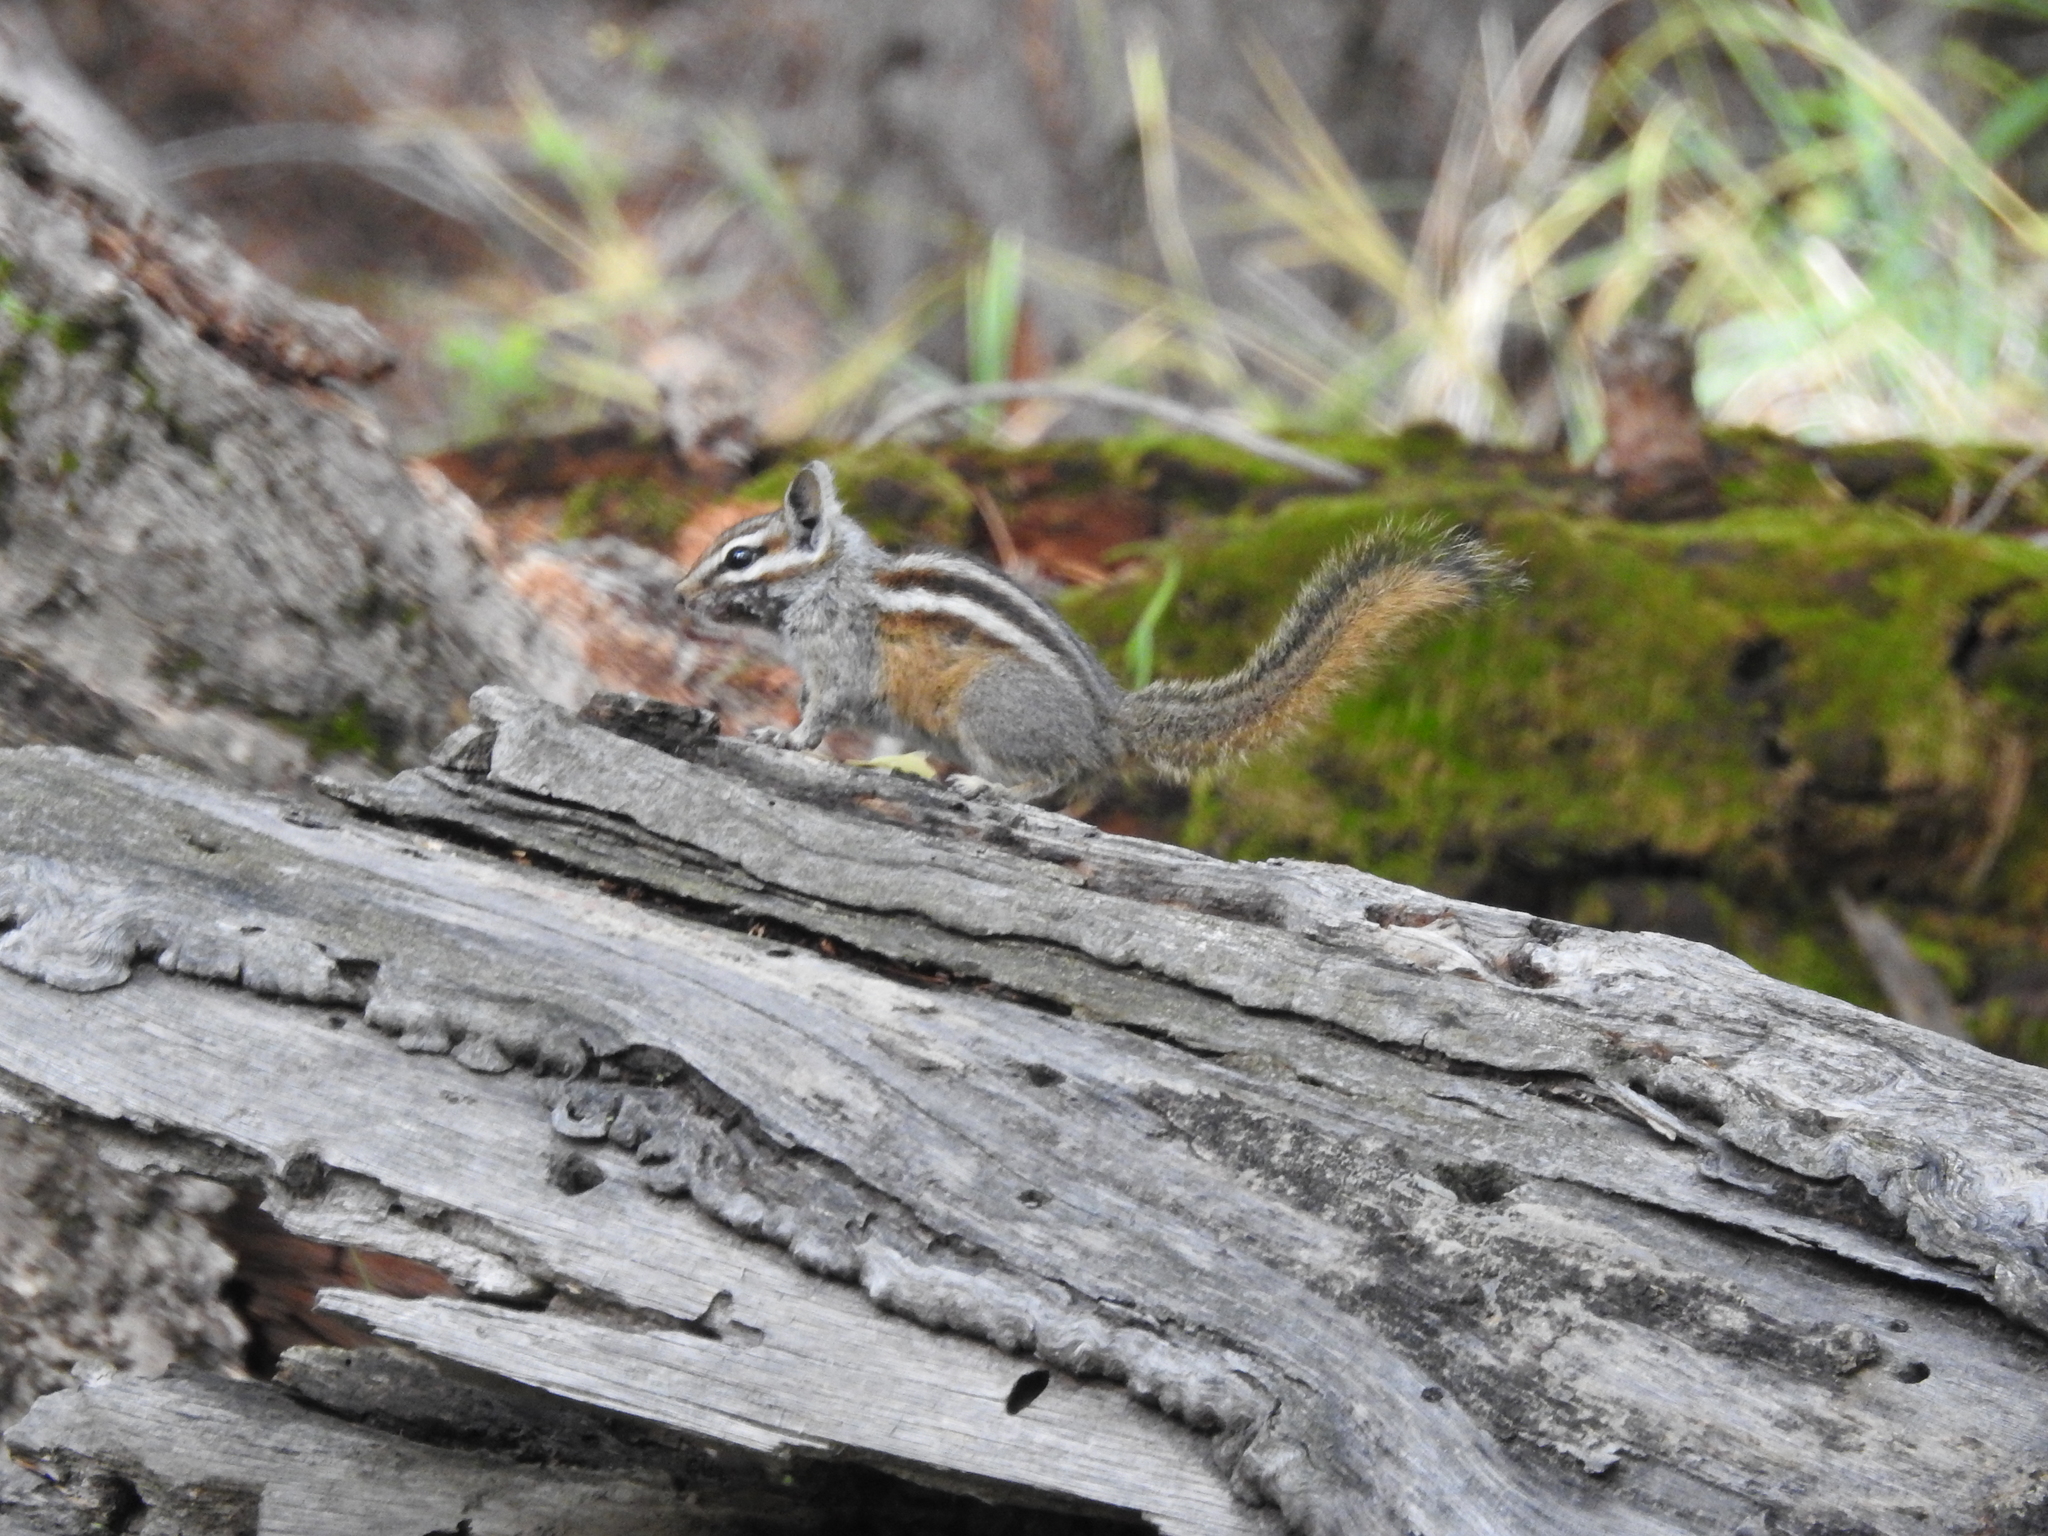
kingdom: Animalia
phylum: Chordata
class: Mammalia
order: Rodentia
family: Sciuridae
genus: Tamias
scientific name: Tamias cinereicollis
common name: Gray-collared chipmunk
